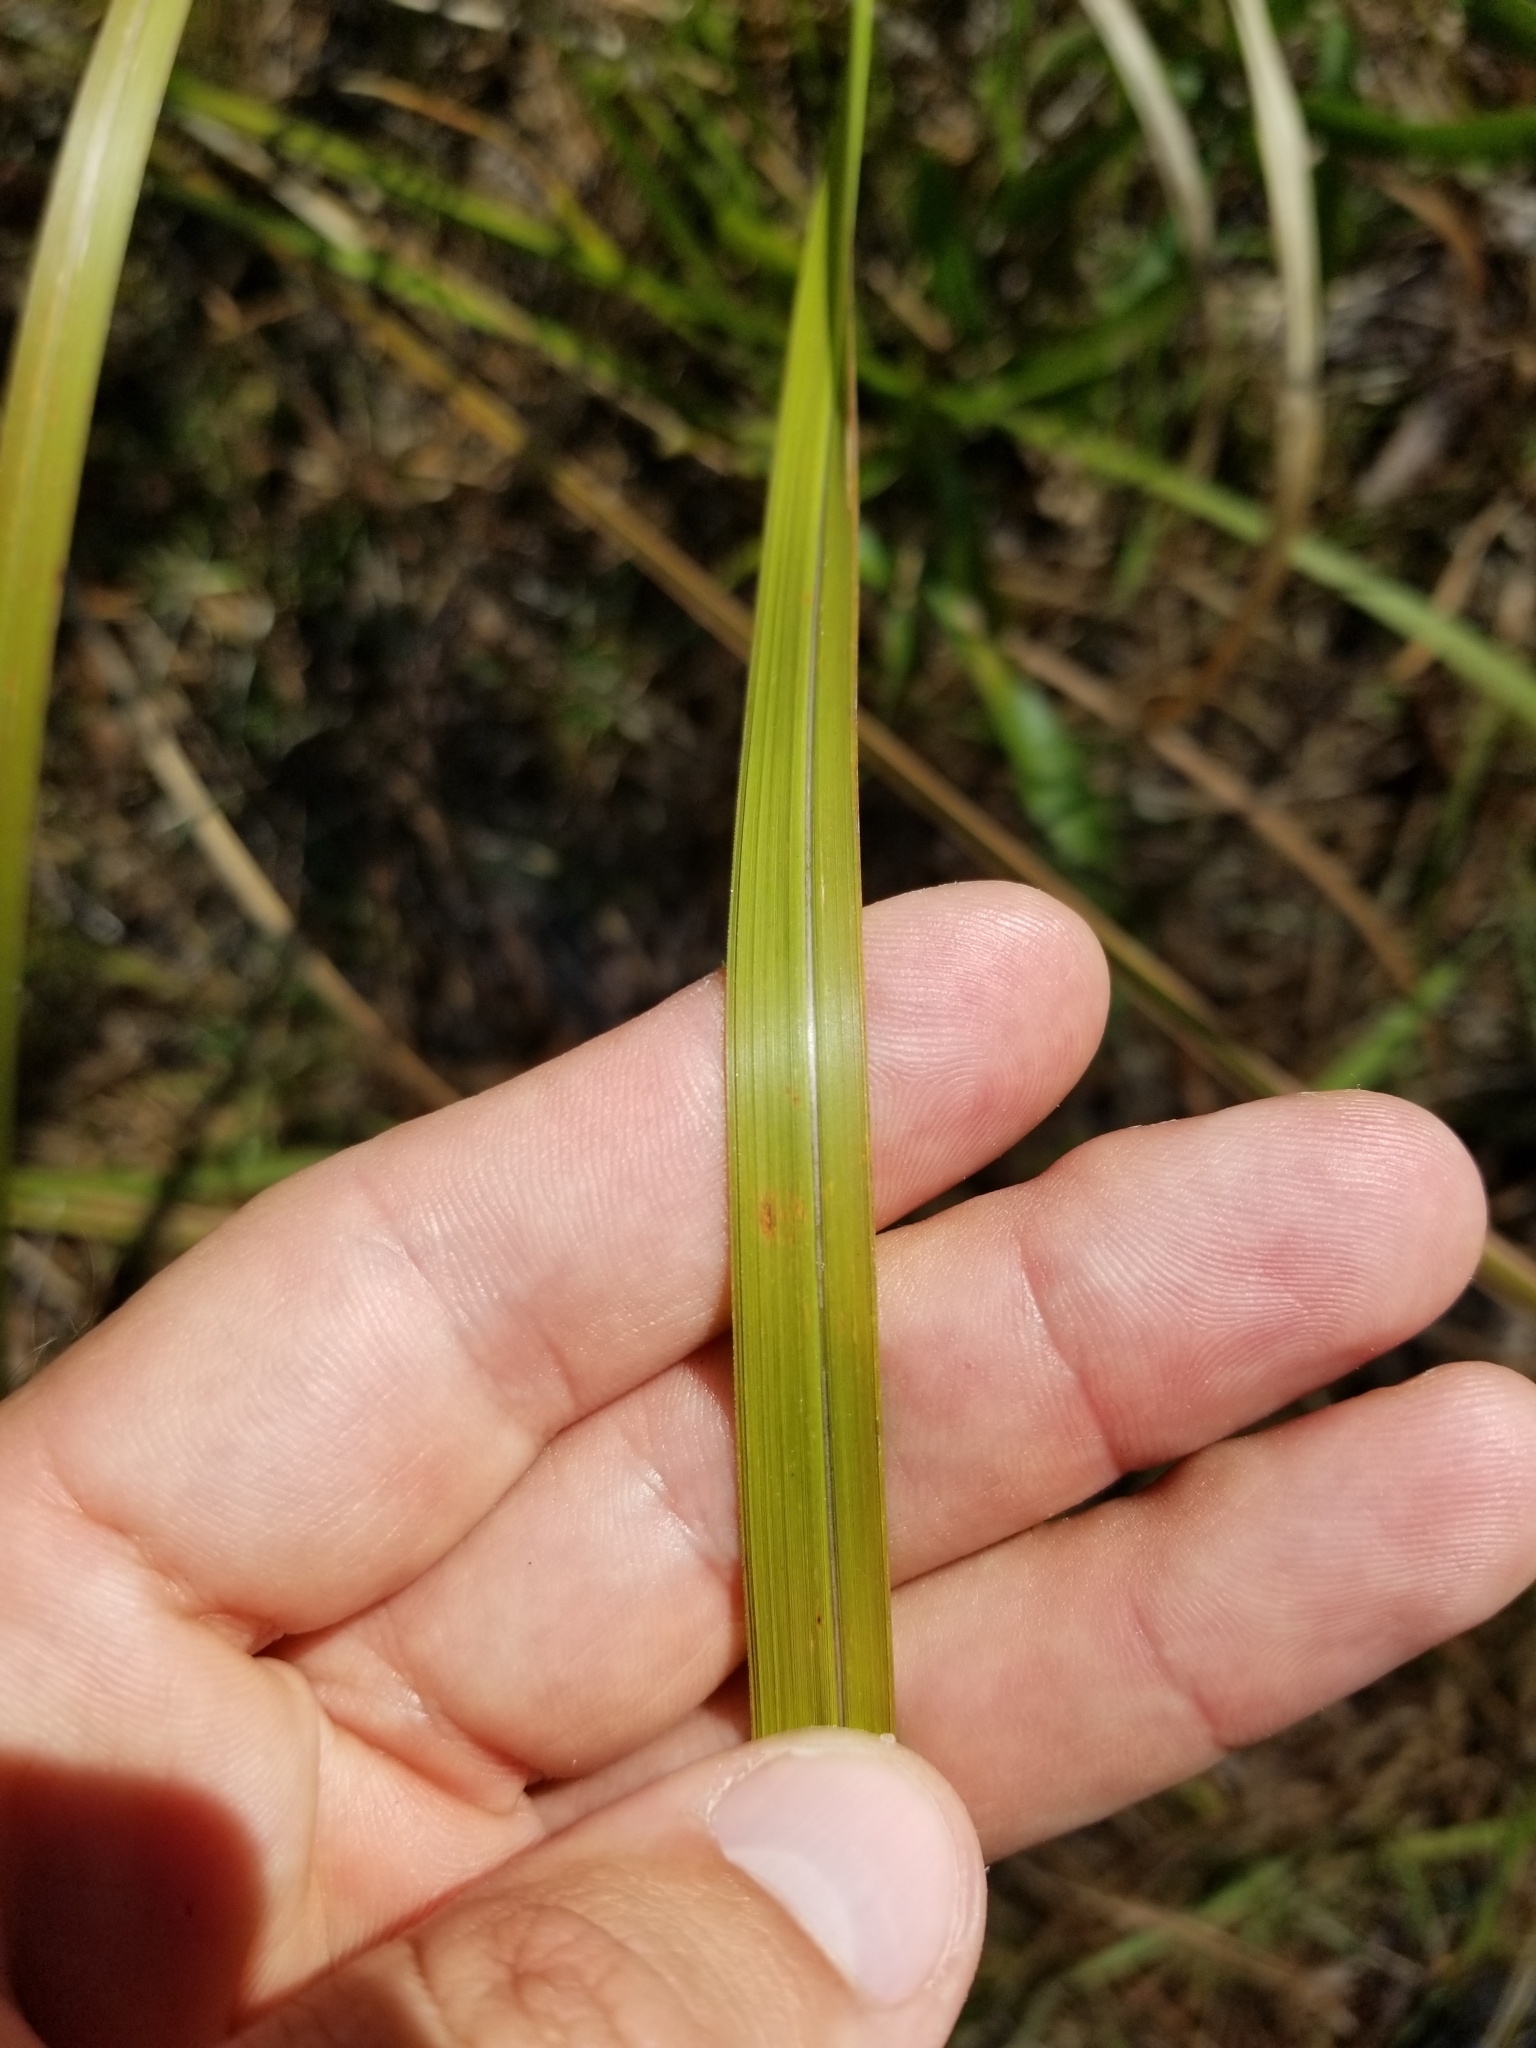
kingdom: Plantae
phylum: Tracheophyta
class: Liliopsida
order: Poales
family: Poaceae
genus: Imperata
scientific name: Imperata cylindrica
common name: Cogongrass
